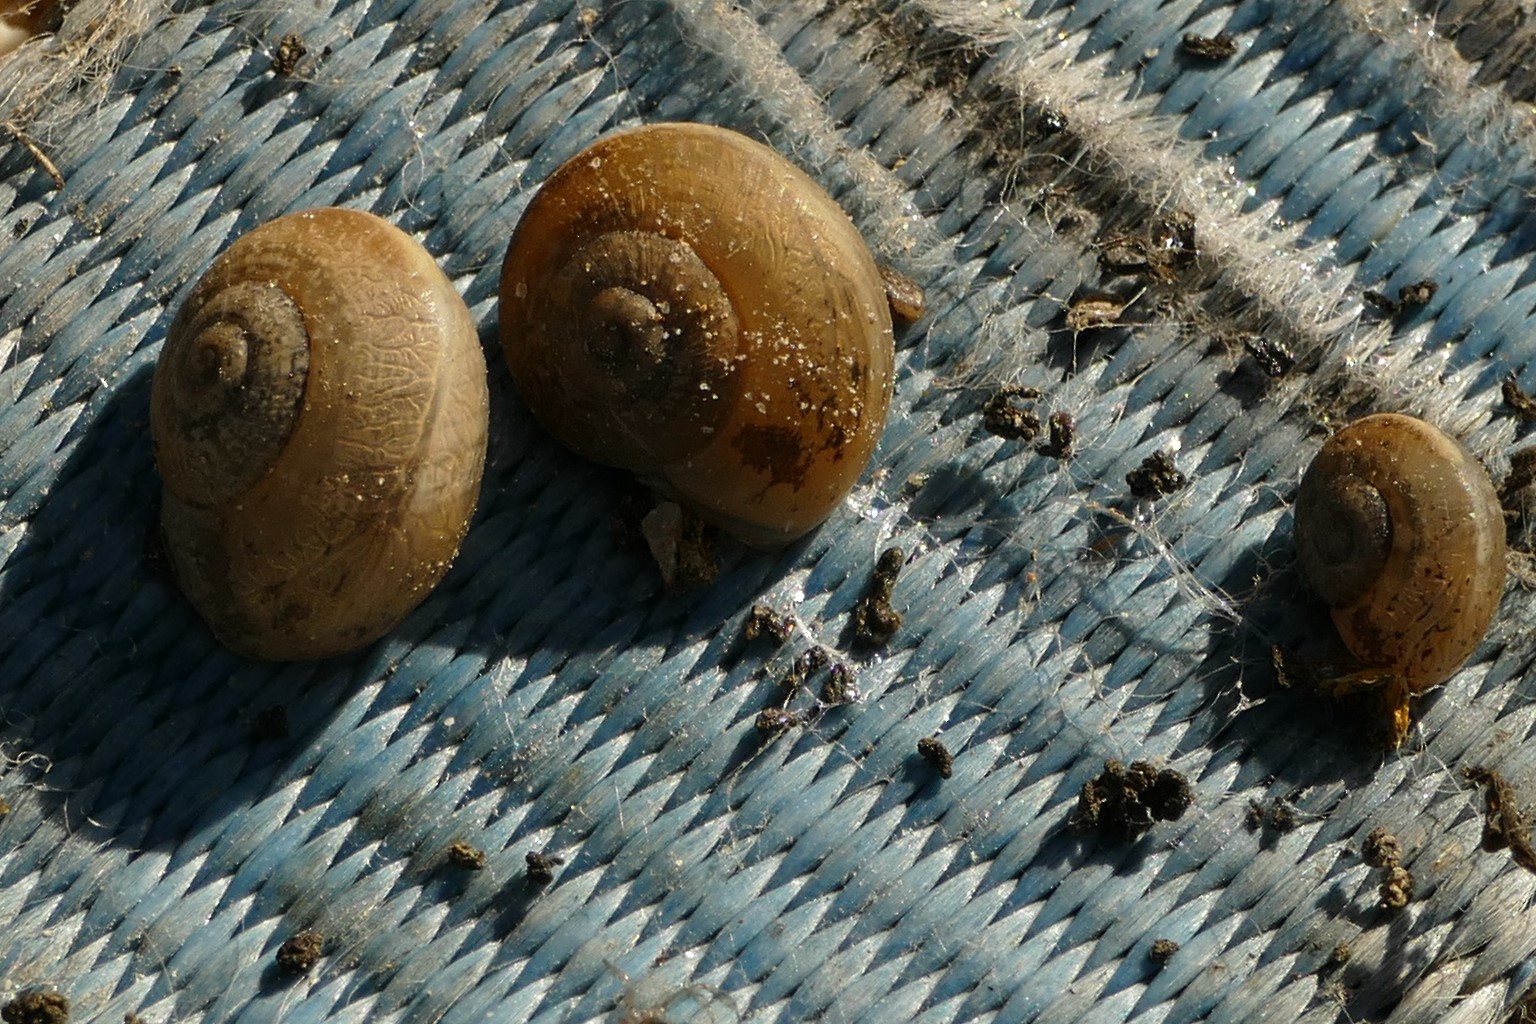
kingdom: Animalia
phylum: Mollusca
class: Gastropoda
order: Stylommatophora
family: Helicidae
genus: Eobania
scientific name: Eobania vermiculata
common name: Chocolateband snail
